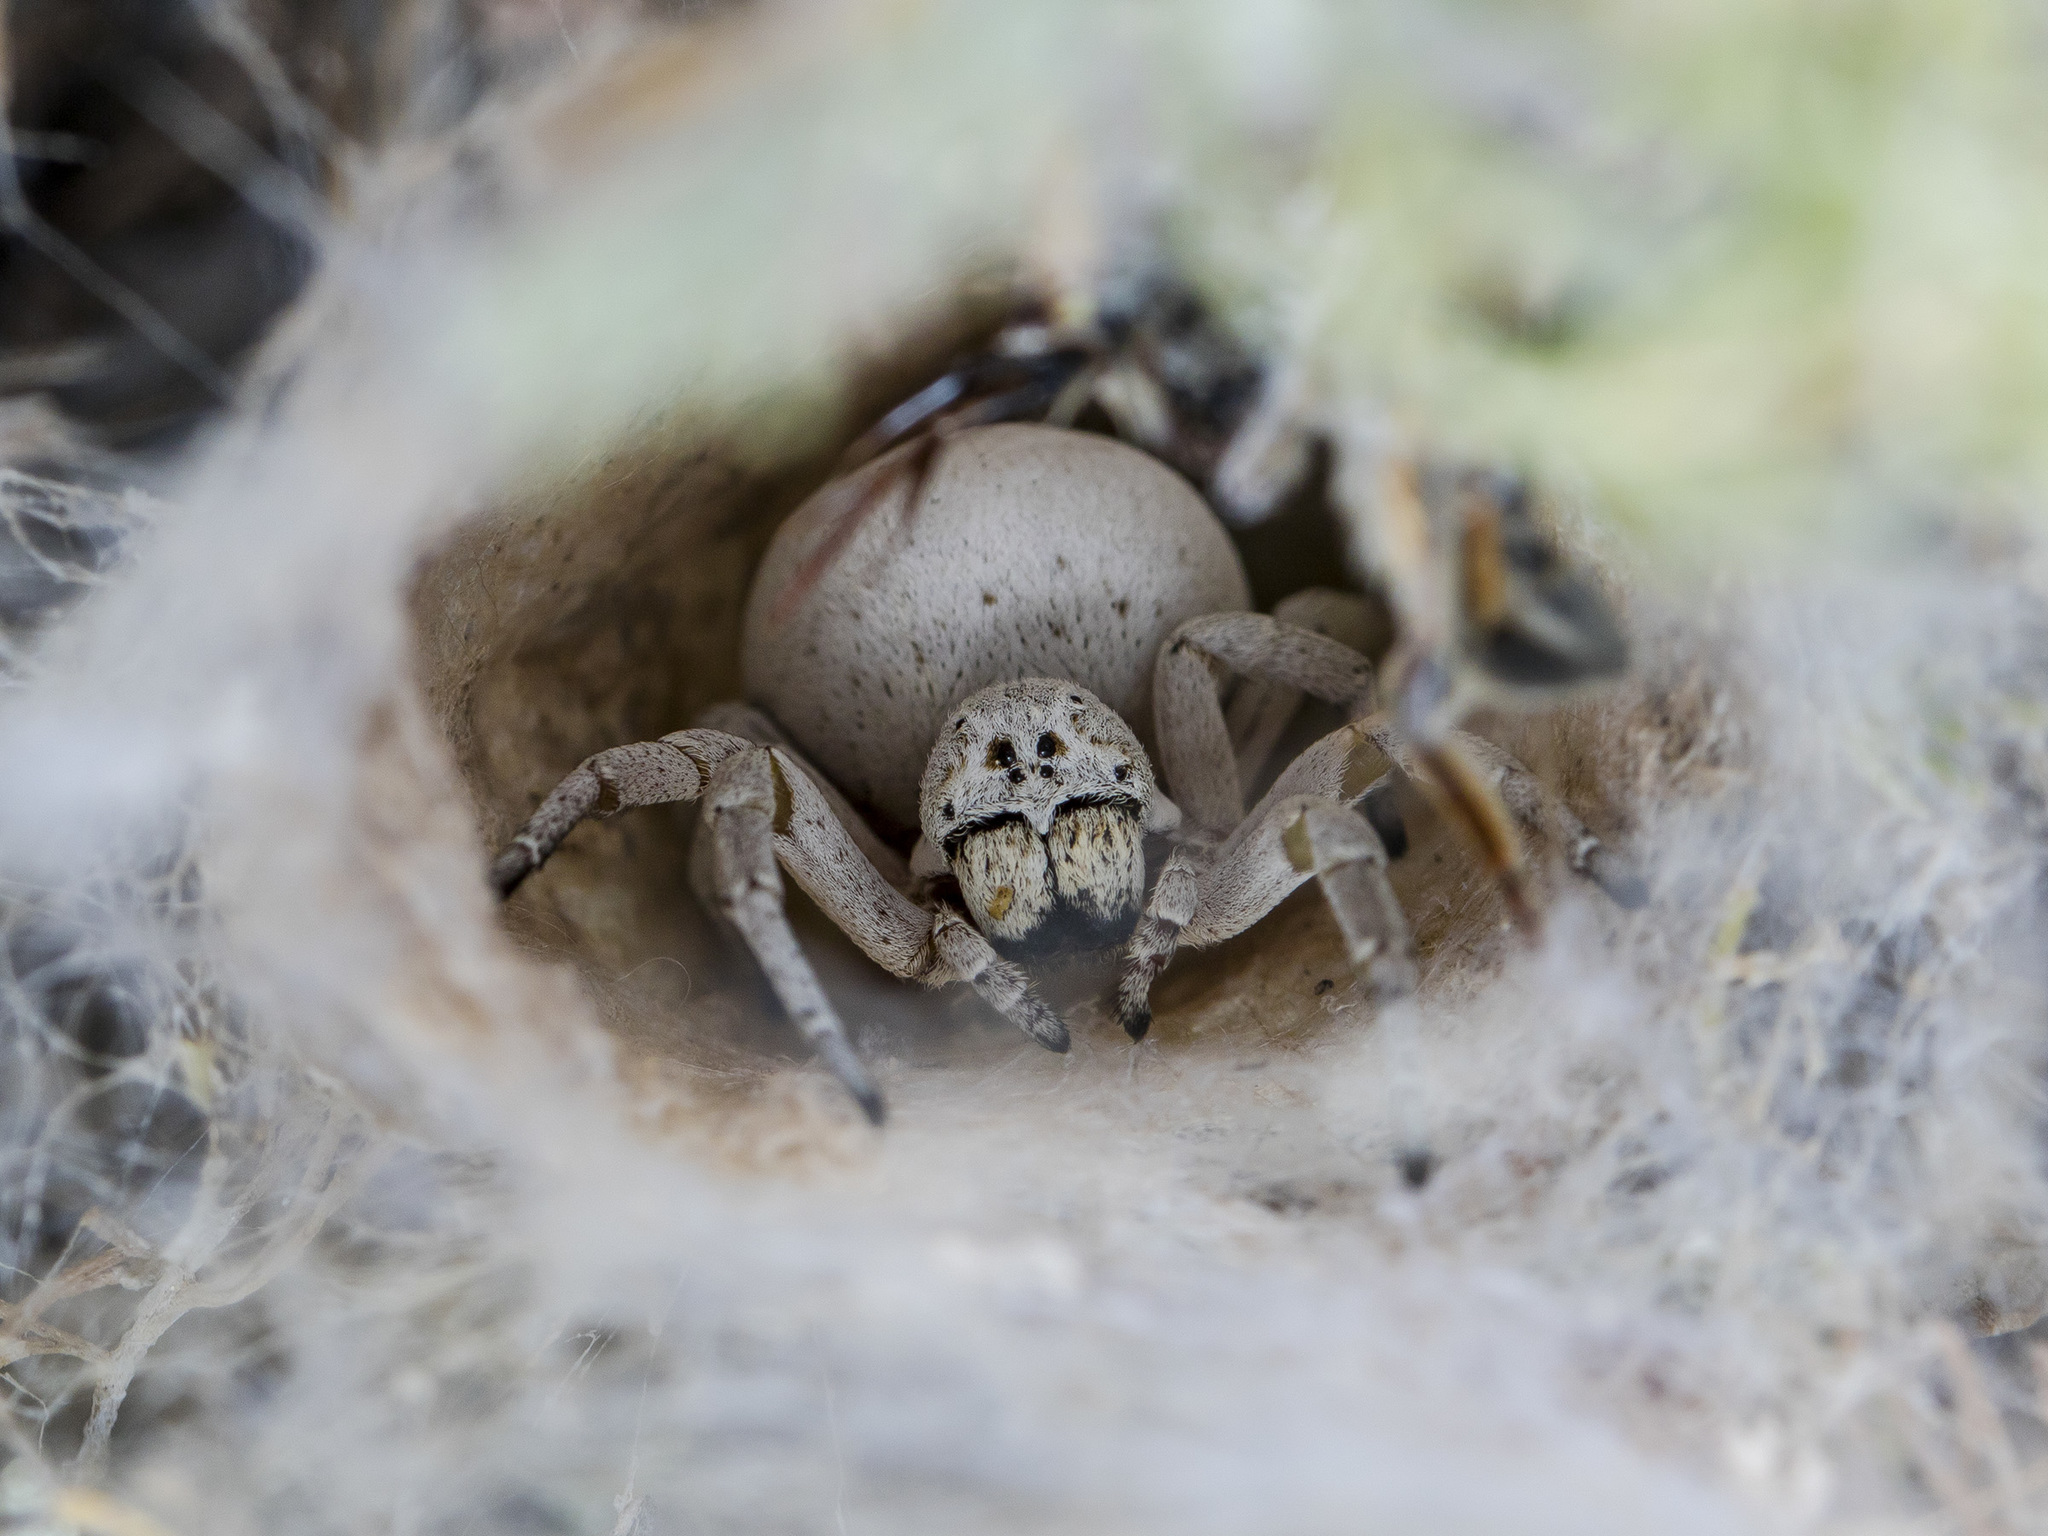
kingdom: Animalia
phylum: Arthropoda
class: Arachnida
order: Araneae
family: Eresidae
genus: Stegodyphus
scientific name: Stegodyphus lineatus
